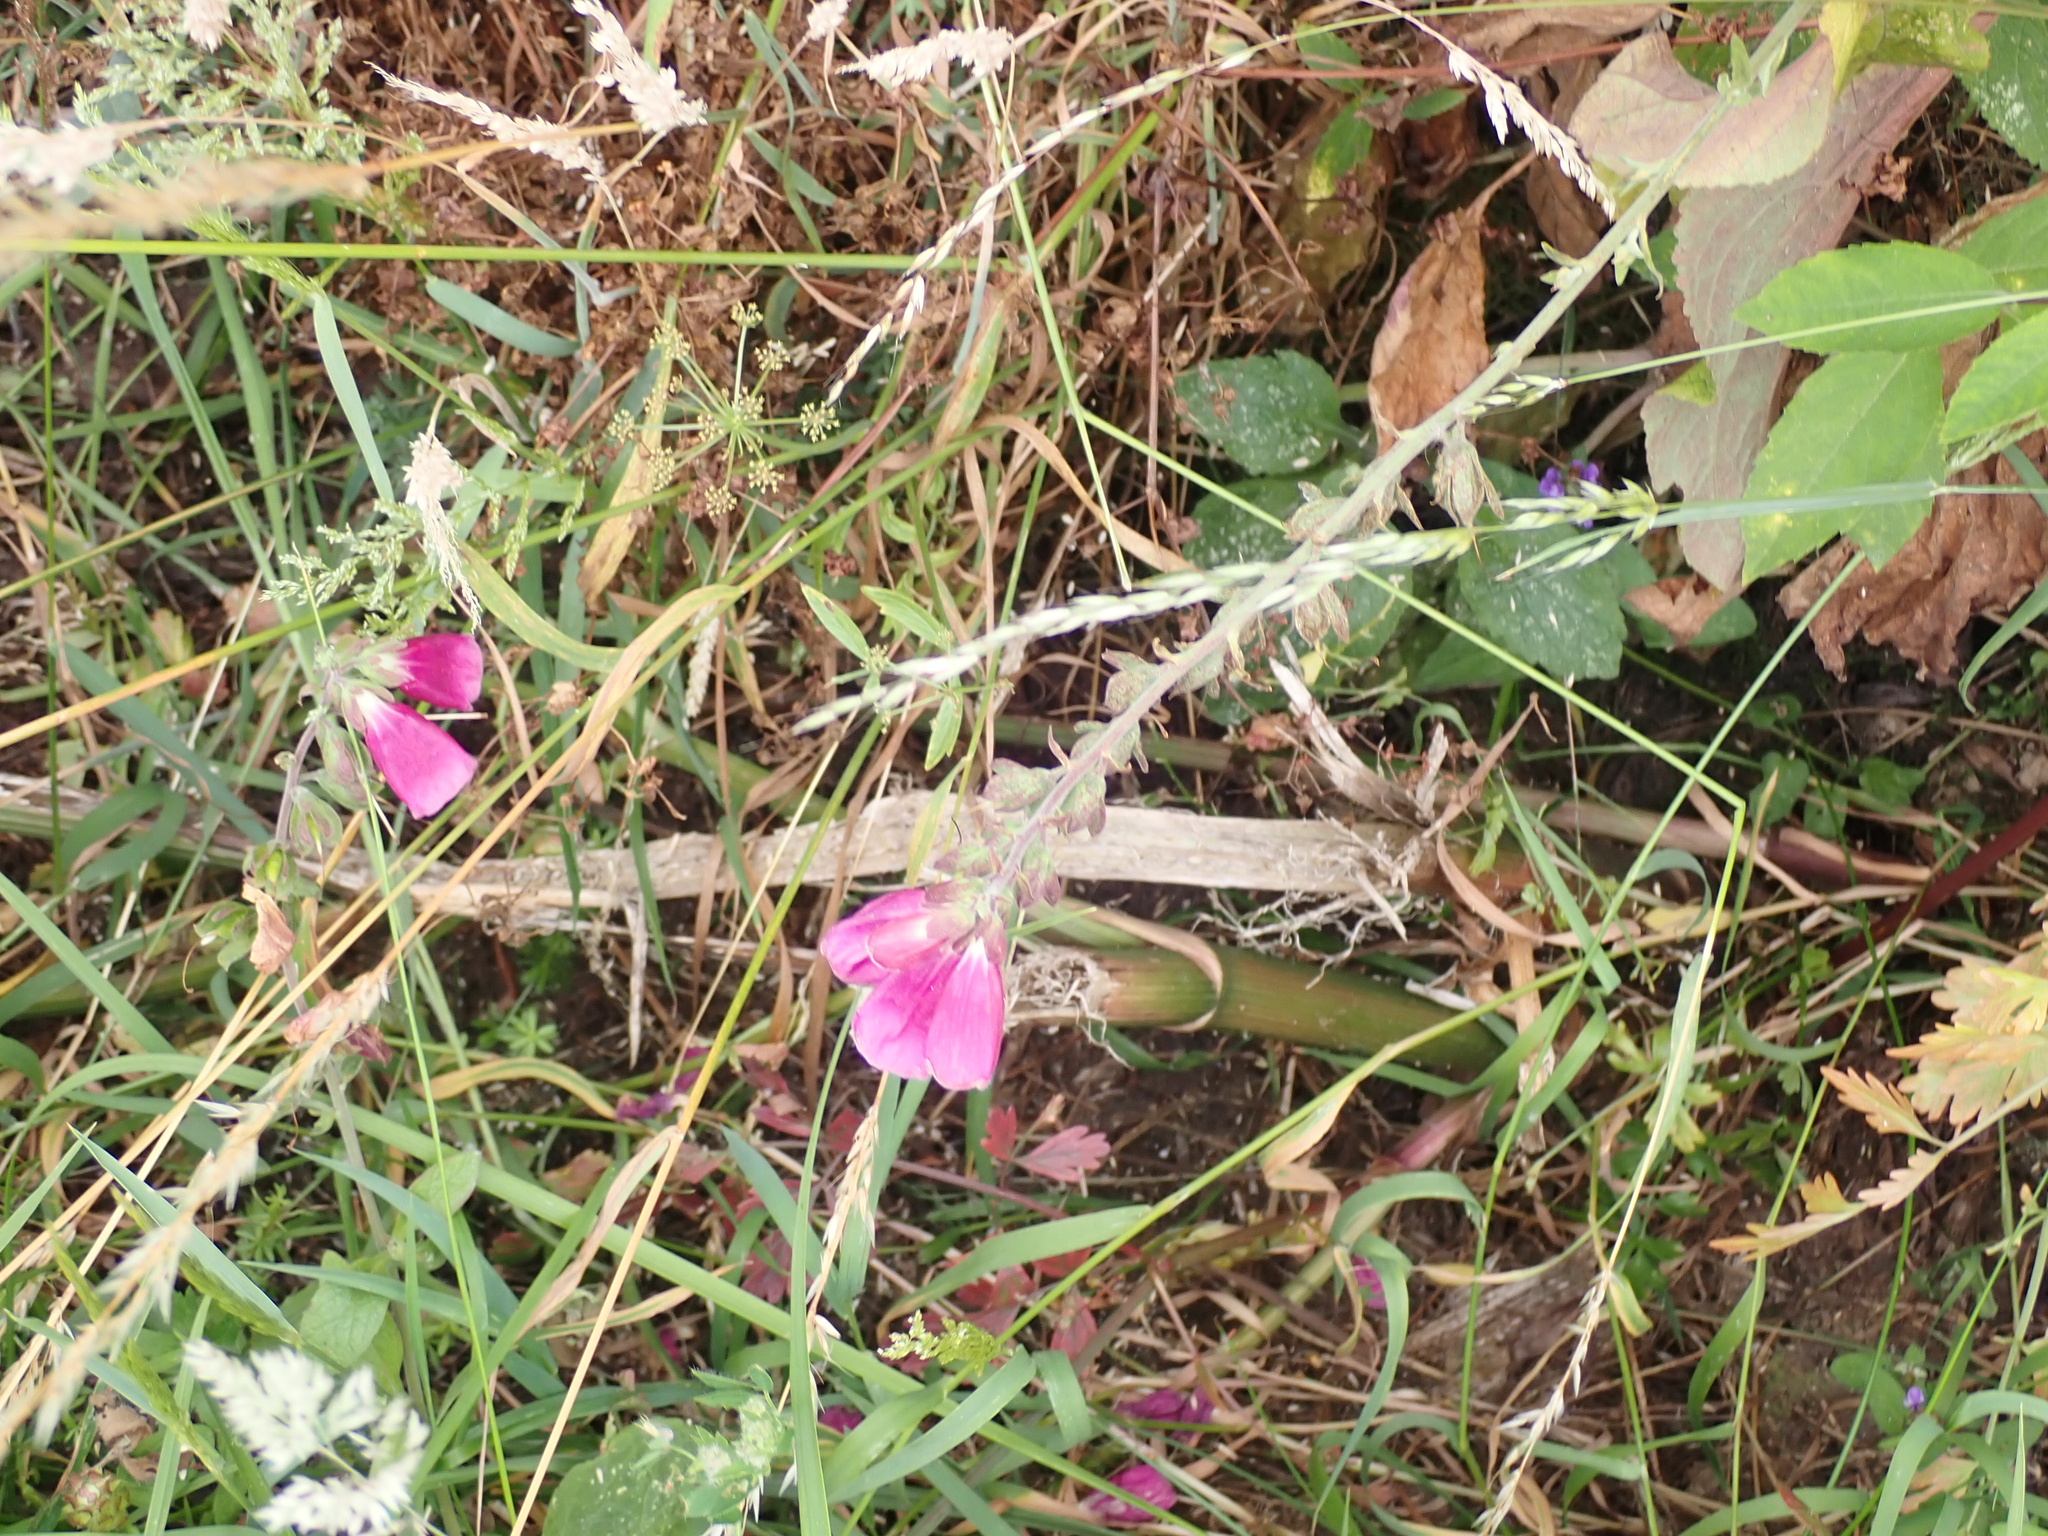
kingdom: Plantae
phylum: Tracheophyta
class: Magnoliopsida
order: Lamiales
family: Plantaginaceae
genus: Digitalis
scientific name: Digitalis purpurea
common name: Foxglove
